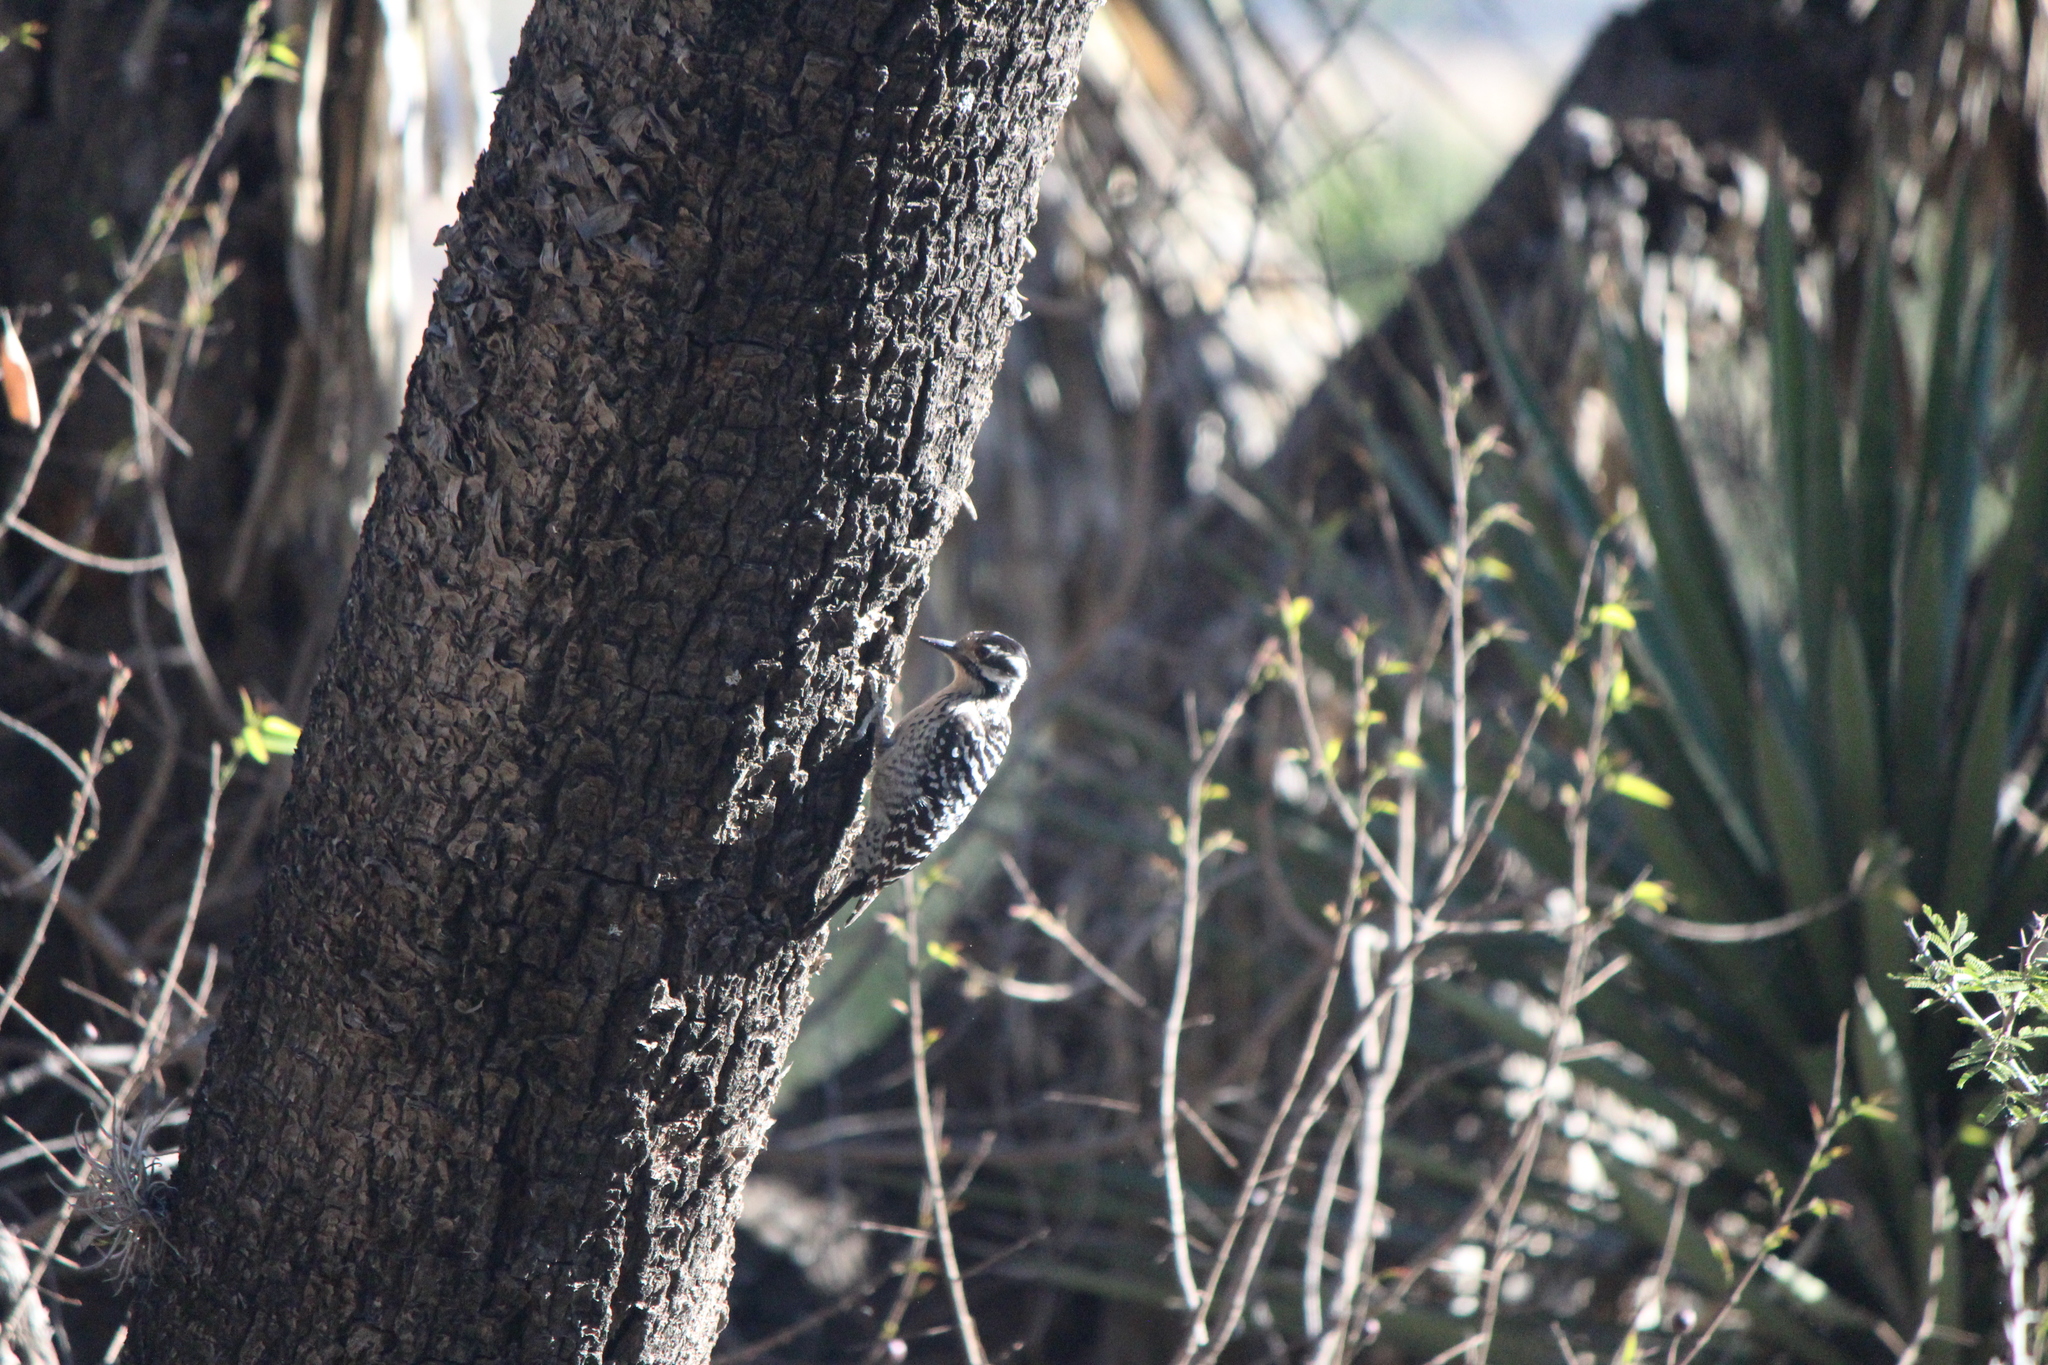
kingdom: Animalia
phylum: Chordata
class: Aves
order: Piciformes
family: Picidae
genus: Dryobates
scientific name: Dryobates scalaris
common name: Ladder-backed woodpecker
